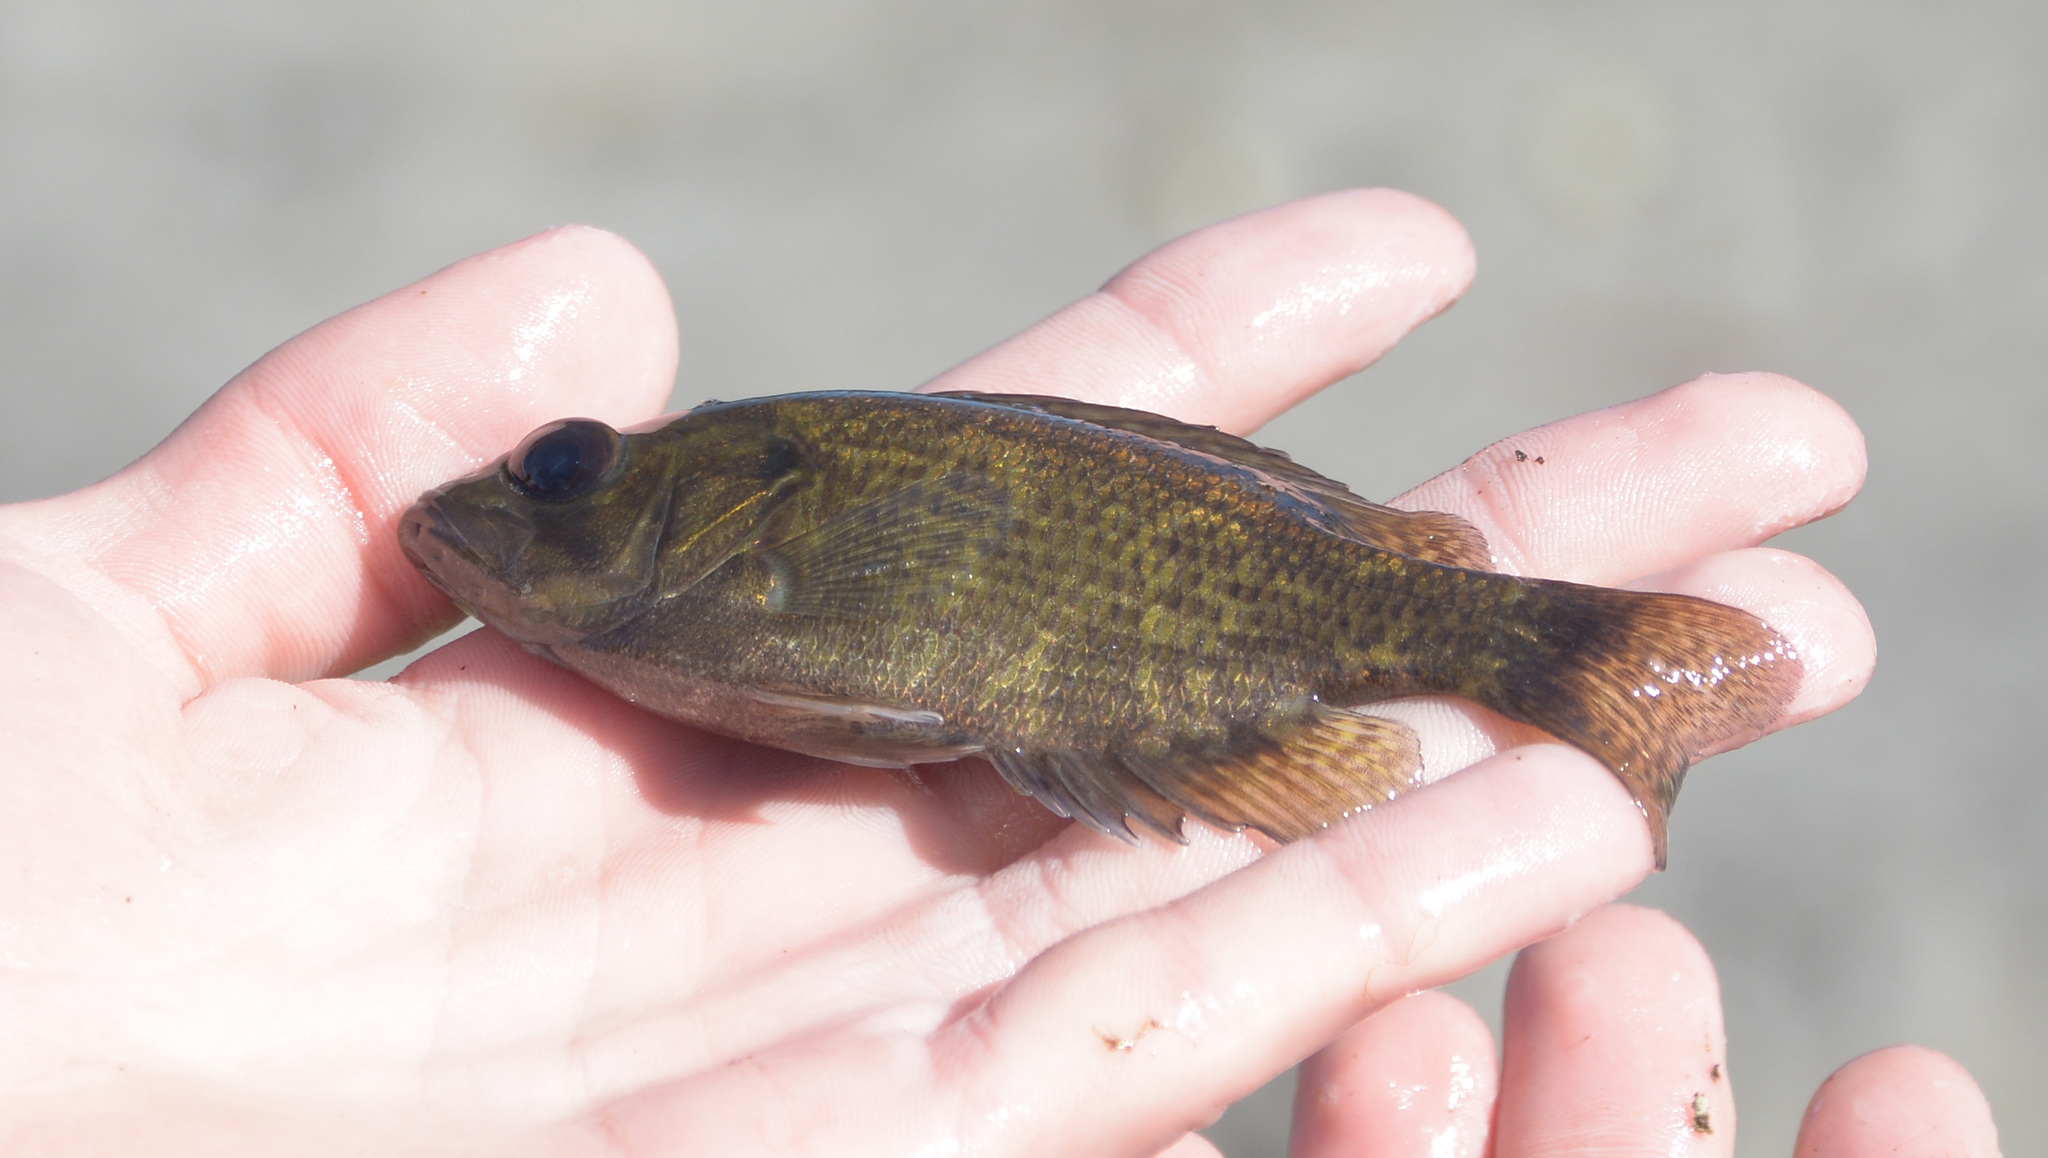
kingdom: Animalia
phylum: Chordata
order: Perciformes
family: Centrarchidae
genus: Ambloplites
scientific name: Ambloplites rupestris
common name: Rock bass
